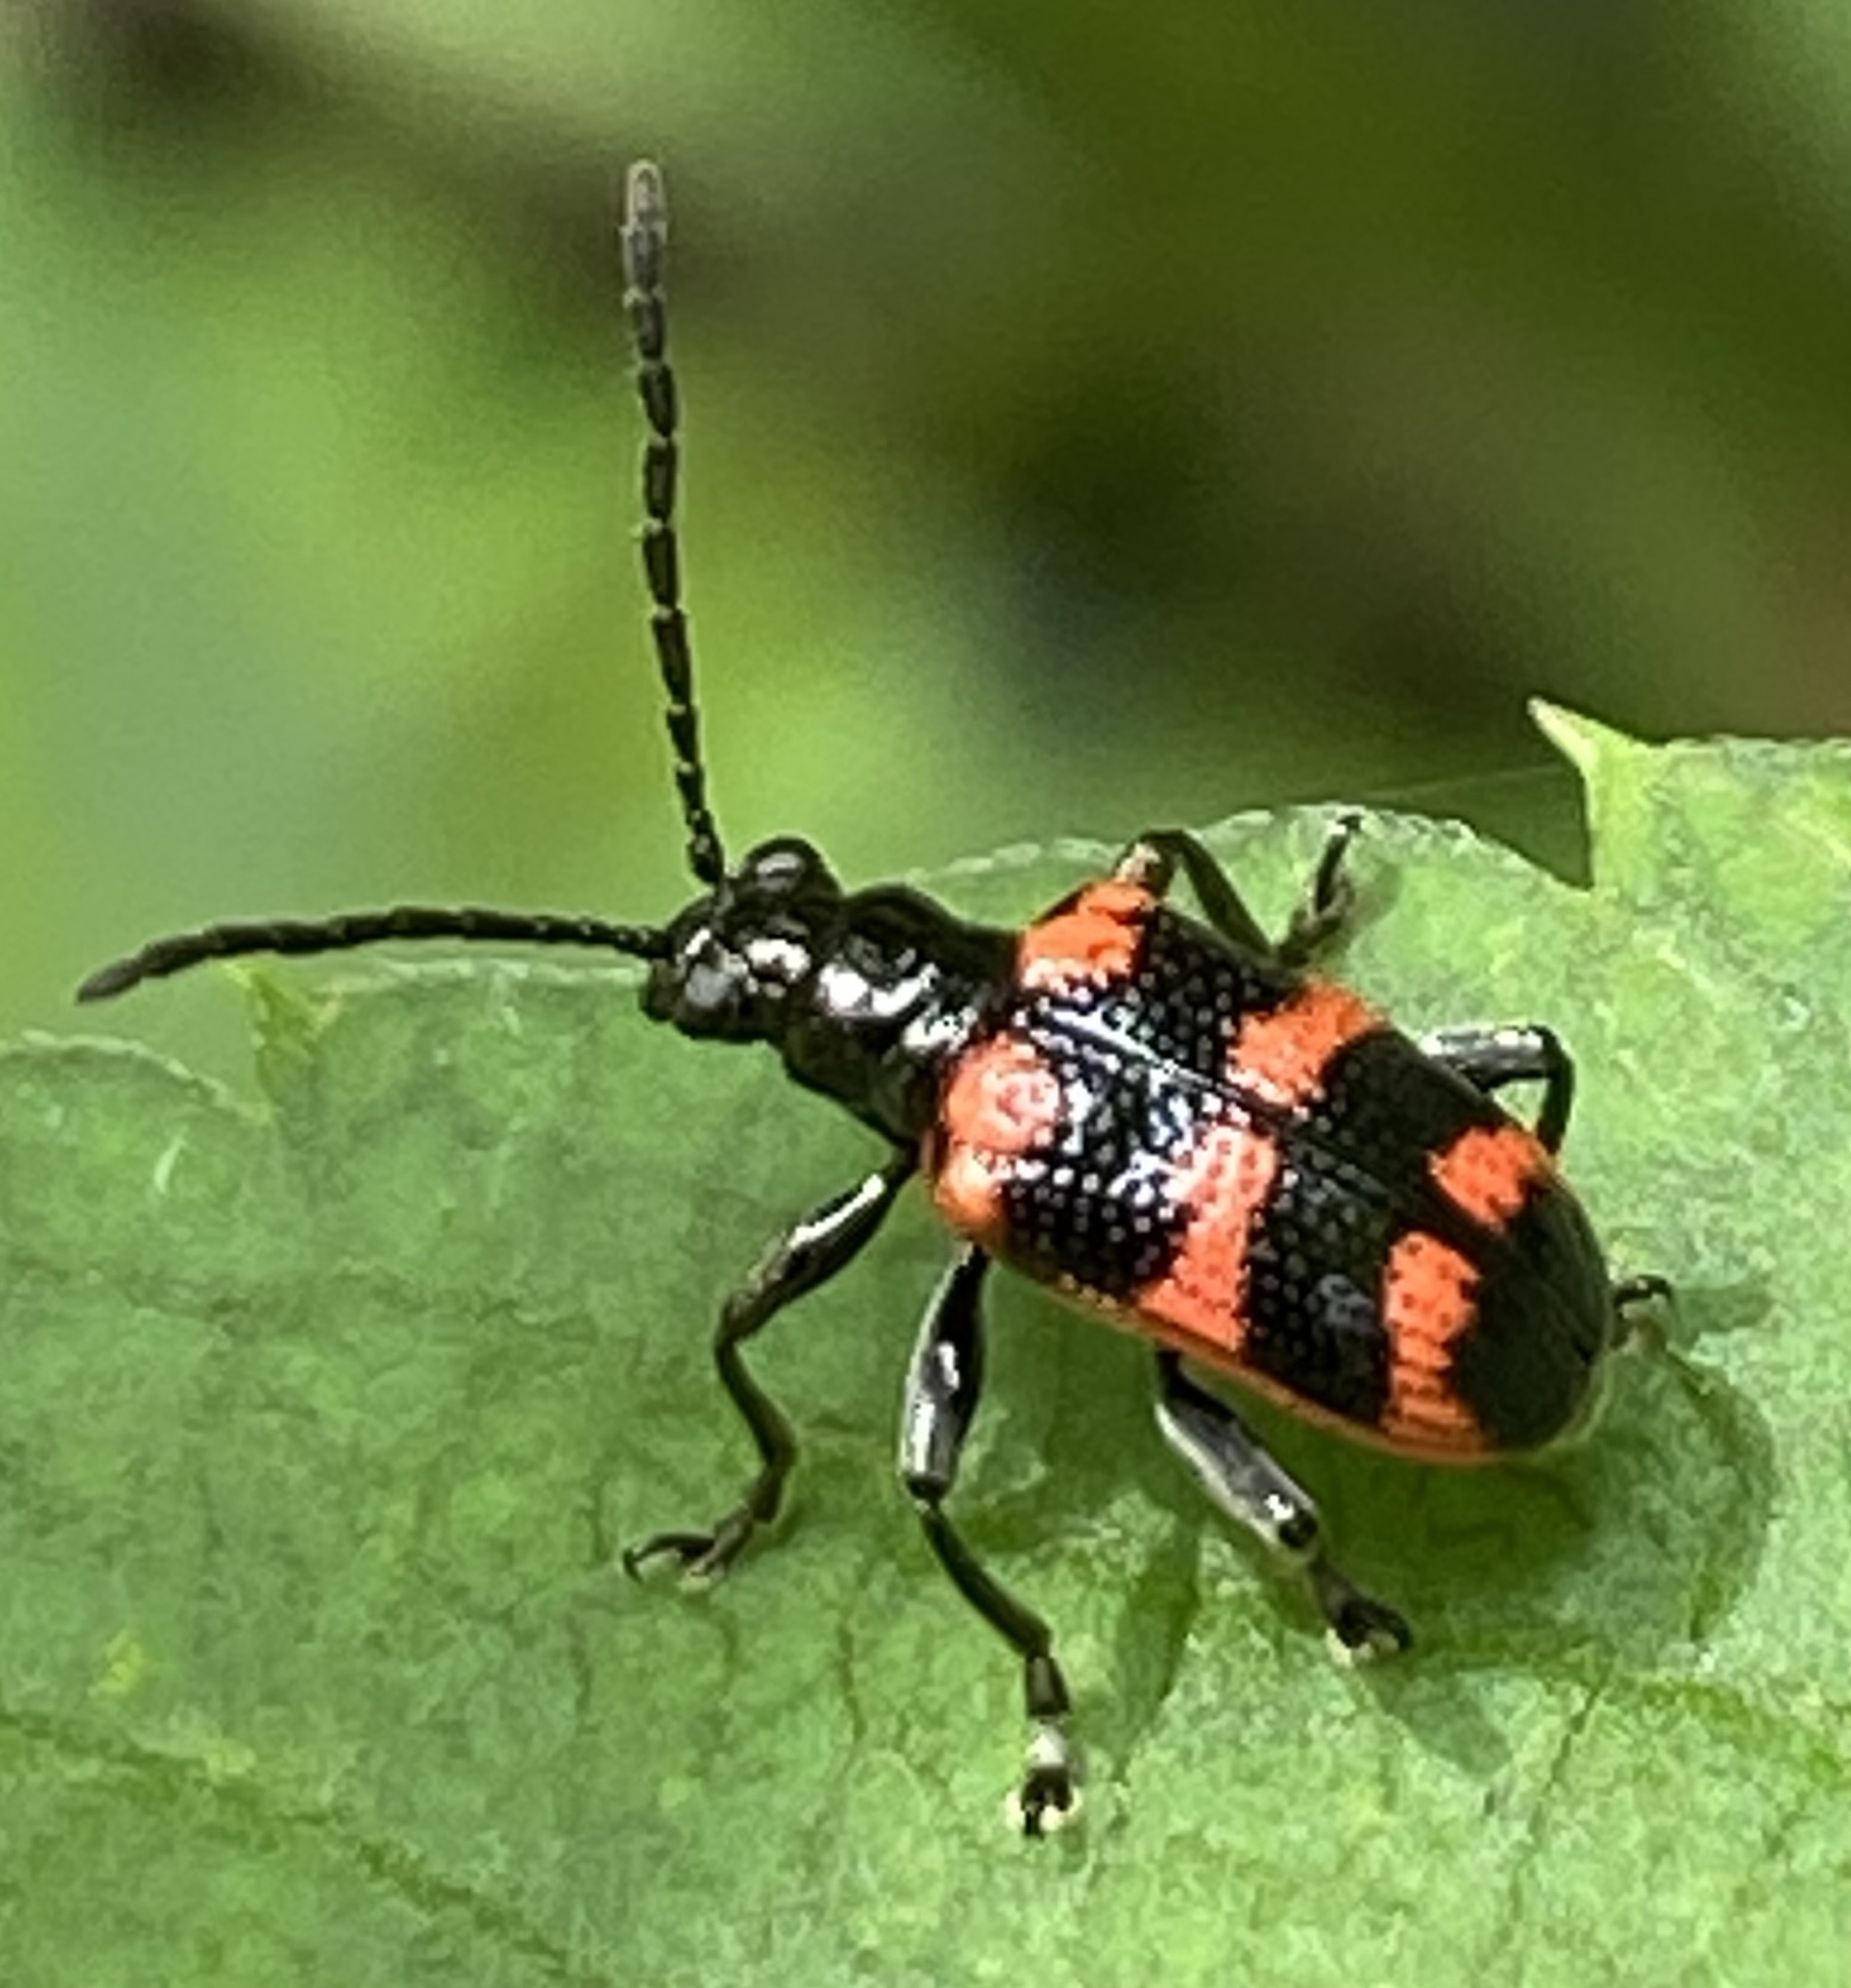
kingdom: Animalia
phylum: Arthropoda
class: Insecta
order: Coleoptera
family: Chrysomelidae
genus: Neolema
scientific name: Neolema
